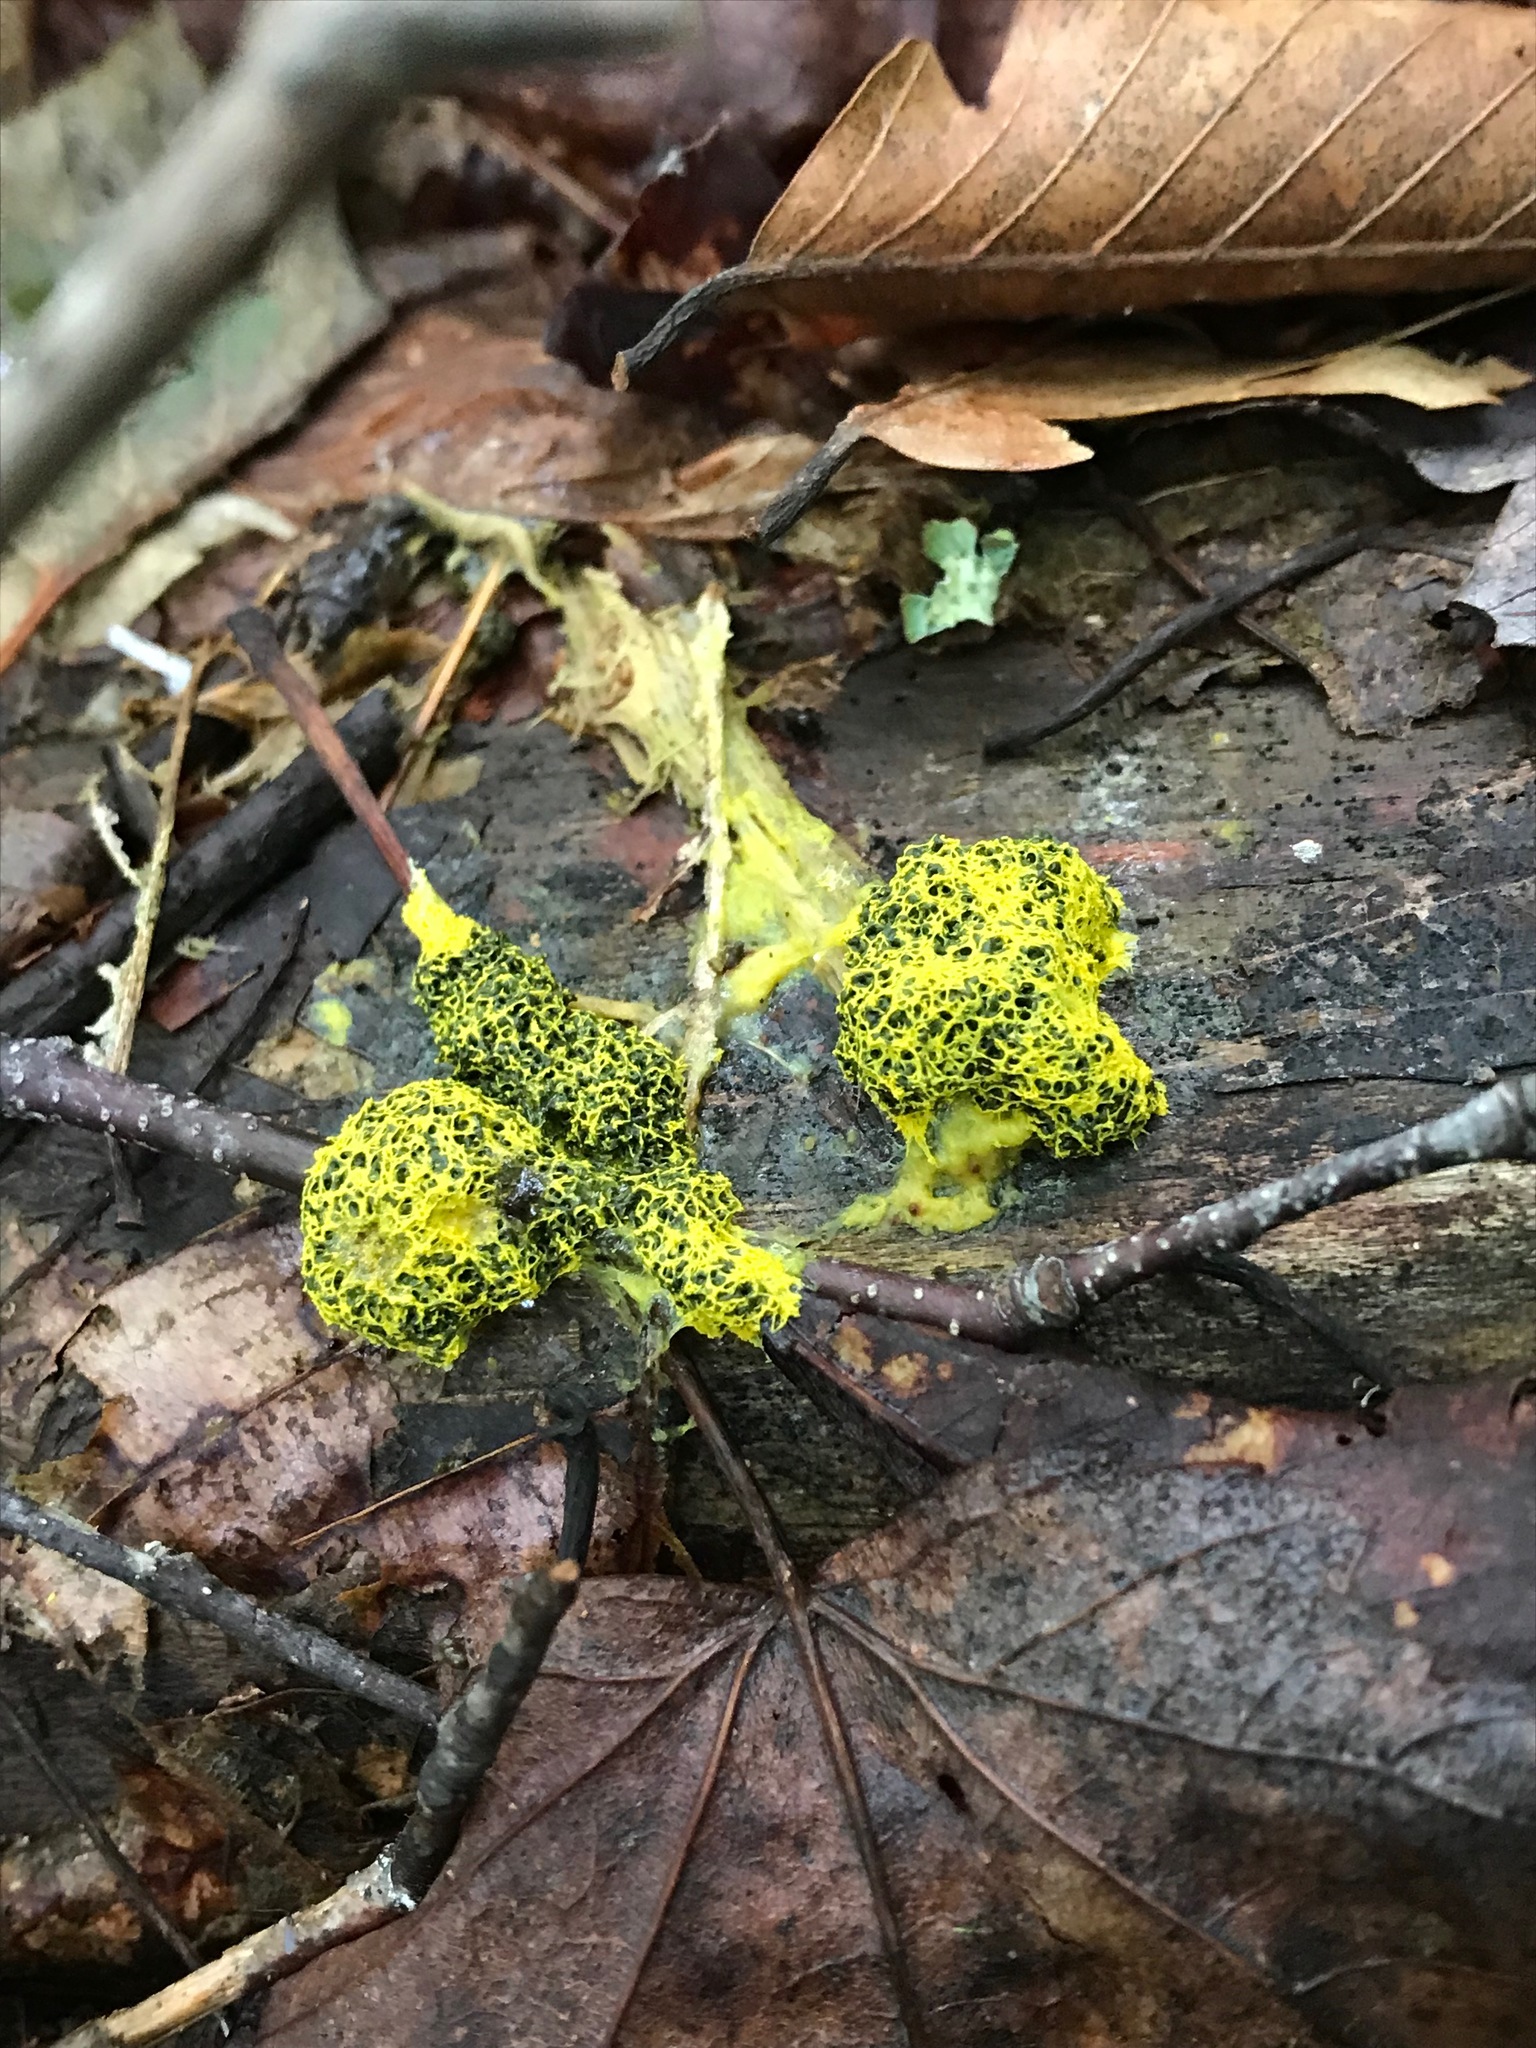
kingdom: Protozoa
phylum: Mycetozoa
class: Myxomycetes
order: Physarales
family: Physaraceae
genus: Fuligo
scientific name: Fuligo septica
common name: Dog vomit slime mold
